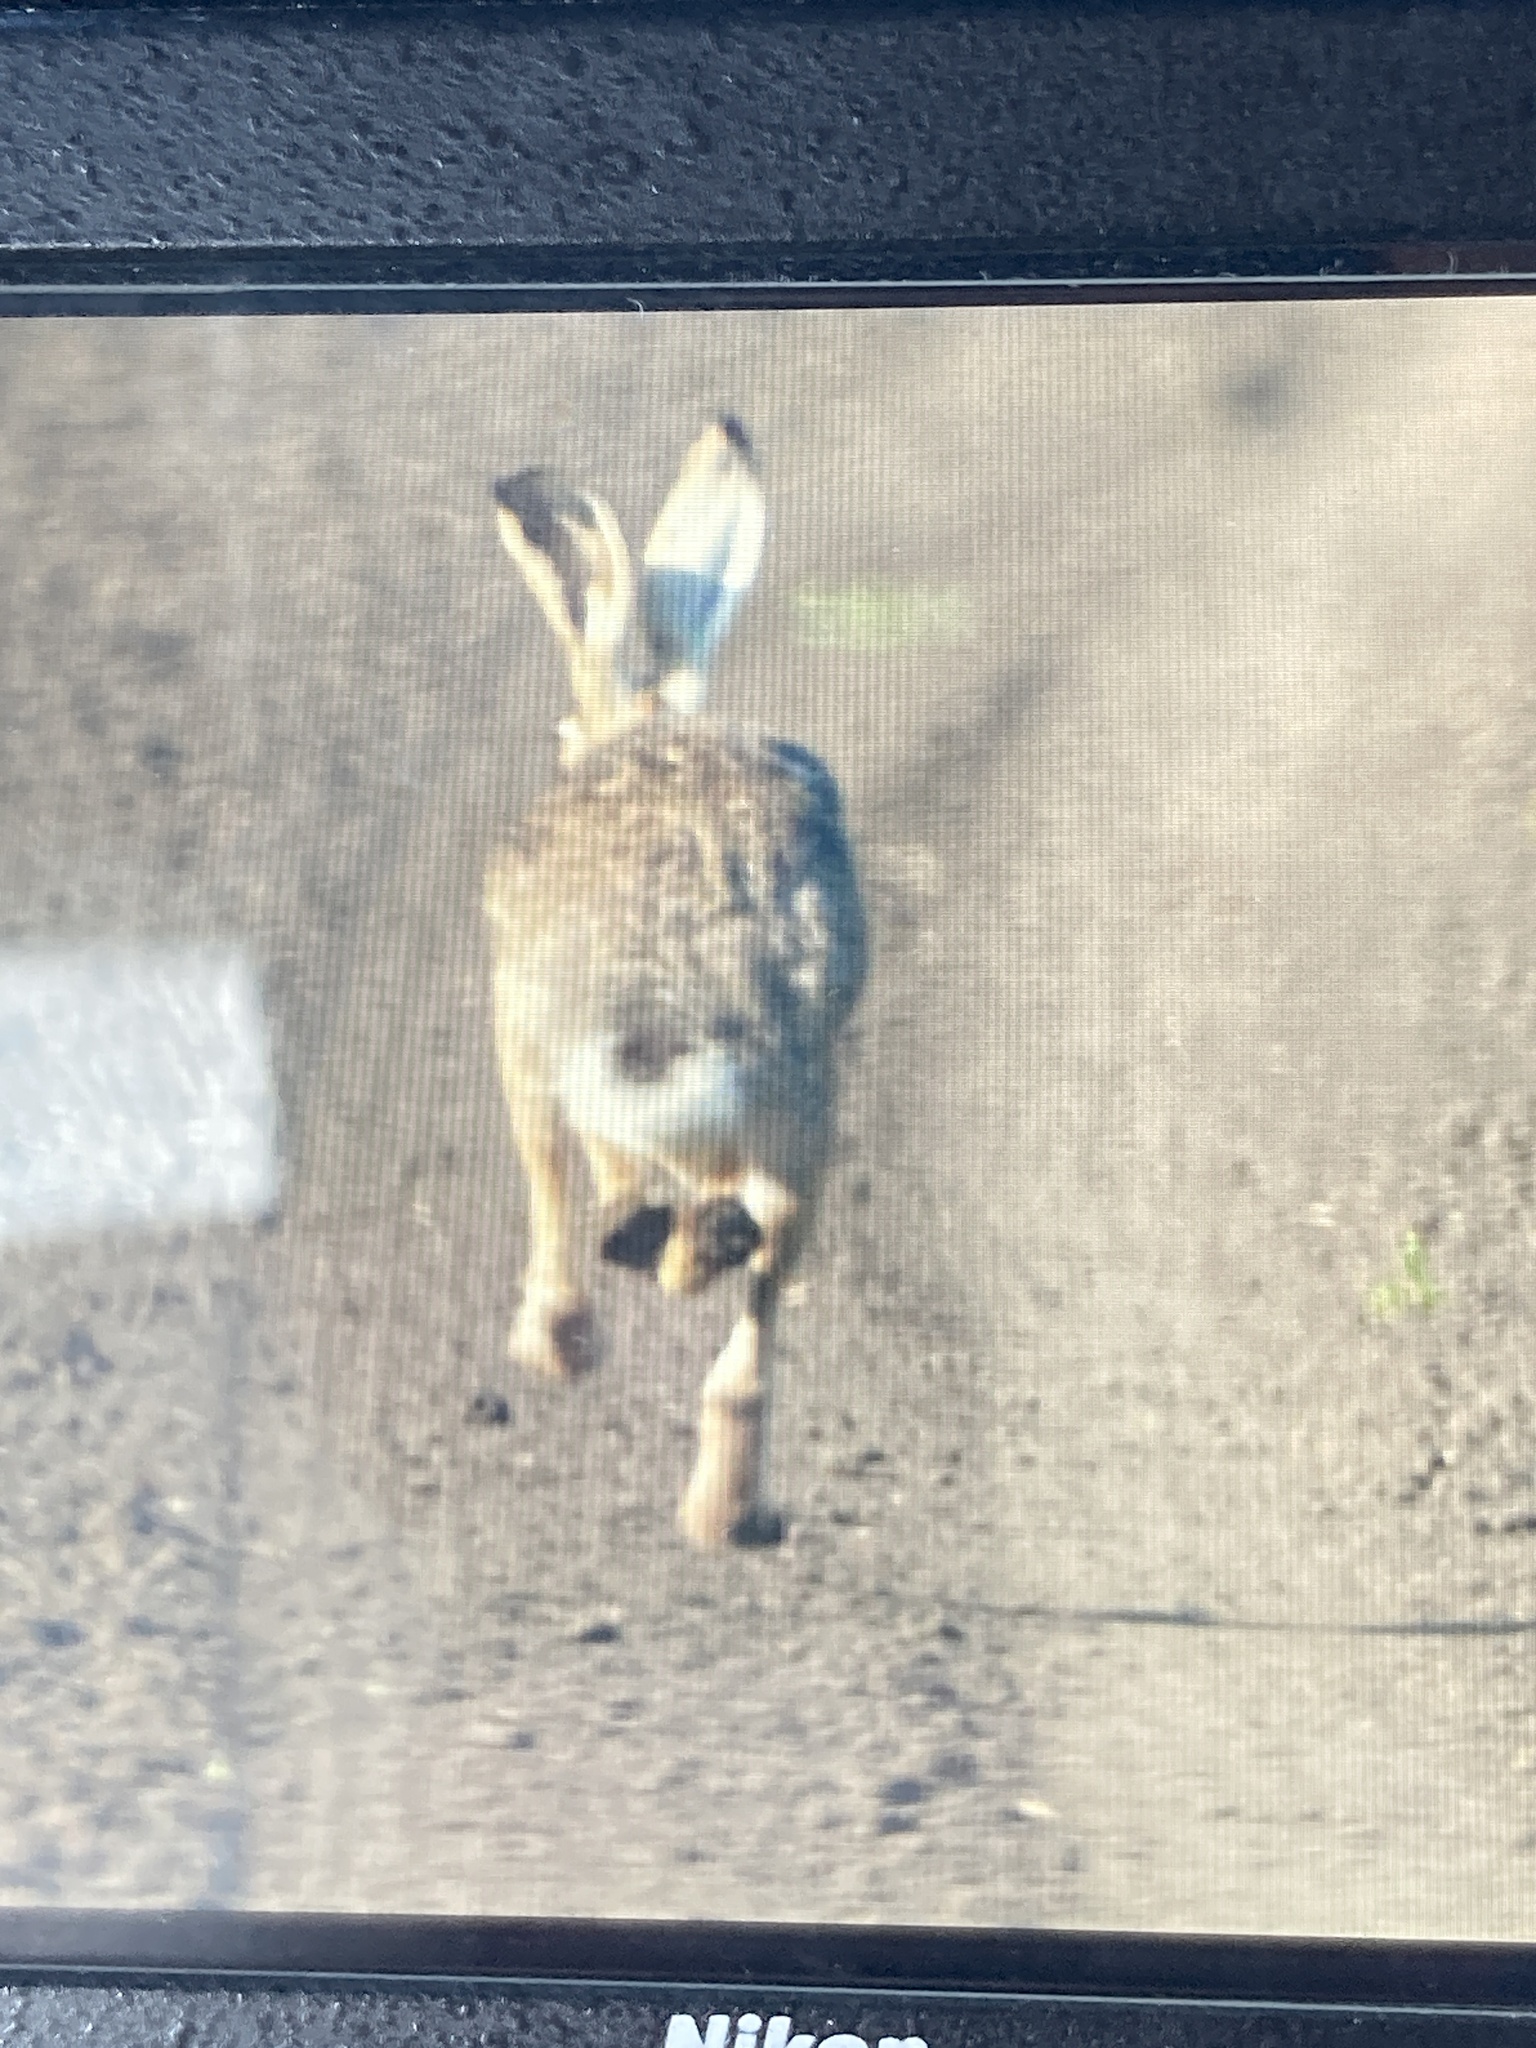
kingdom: Animalia
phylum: Chordata
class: Mammalia
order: Lagomorpha
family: Leporidae
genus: Lepus
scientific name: Lepus europaeus
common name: European hare
